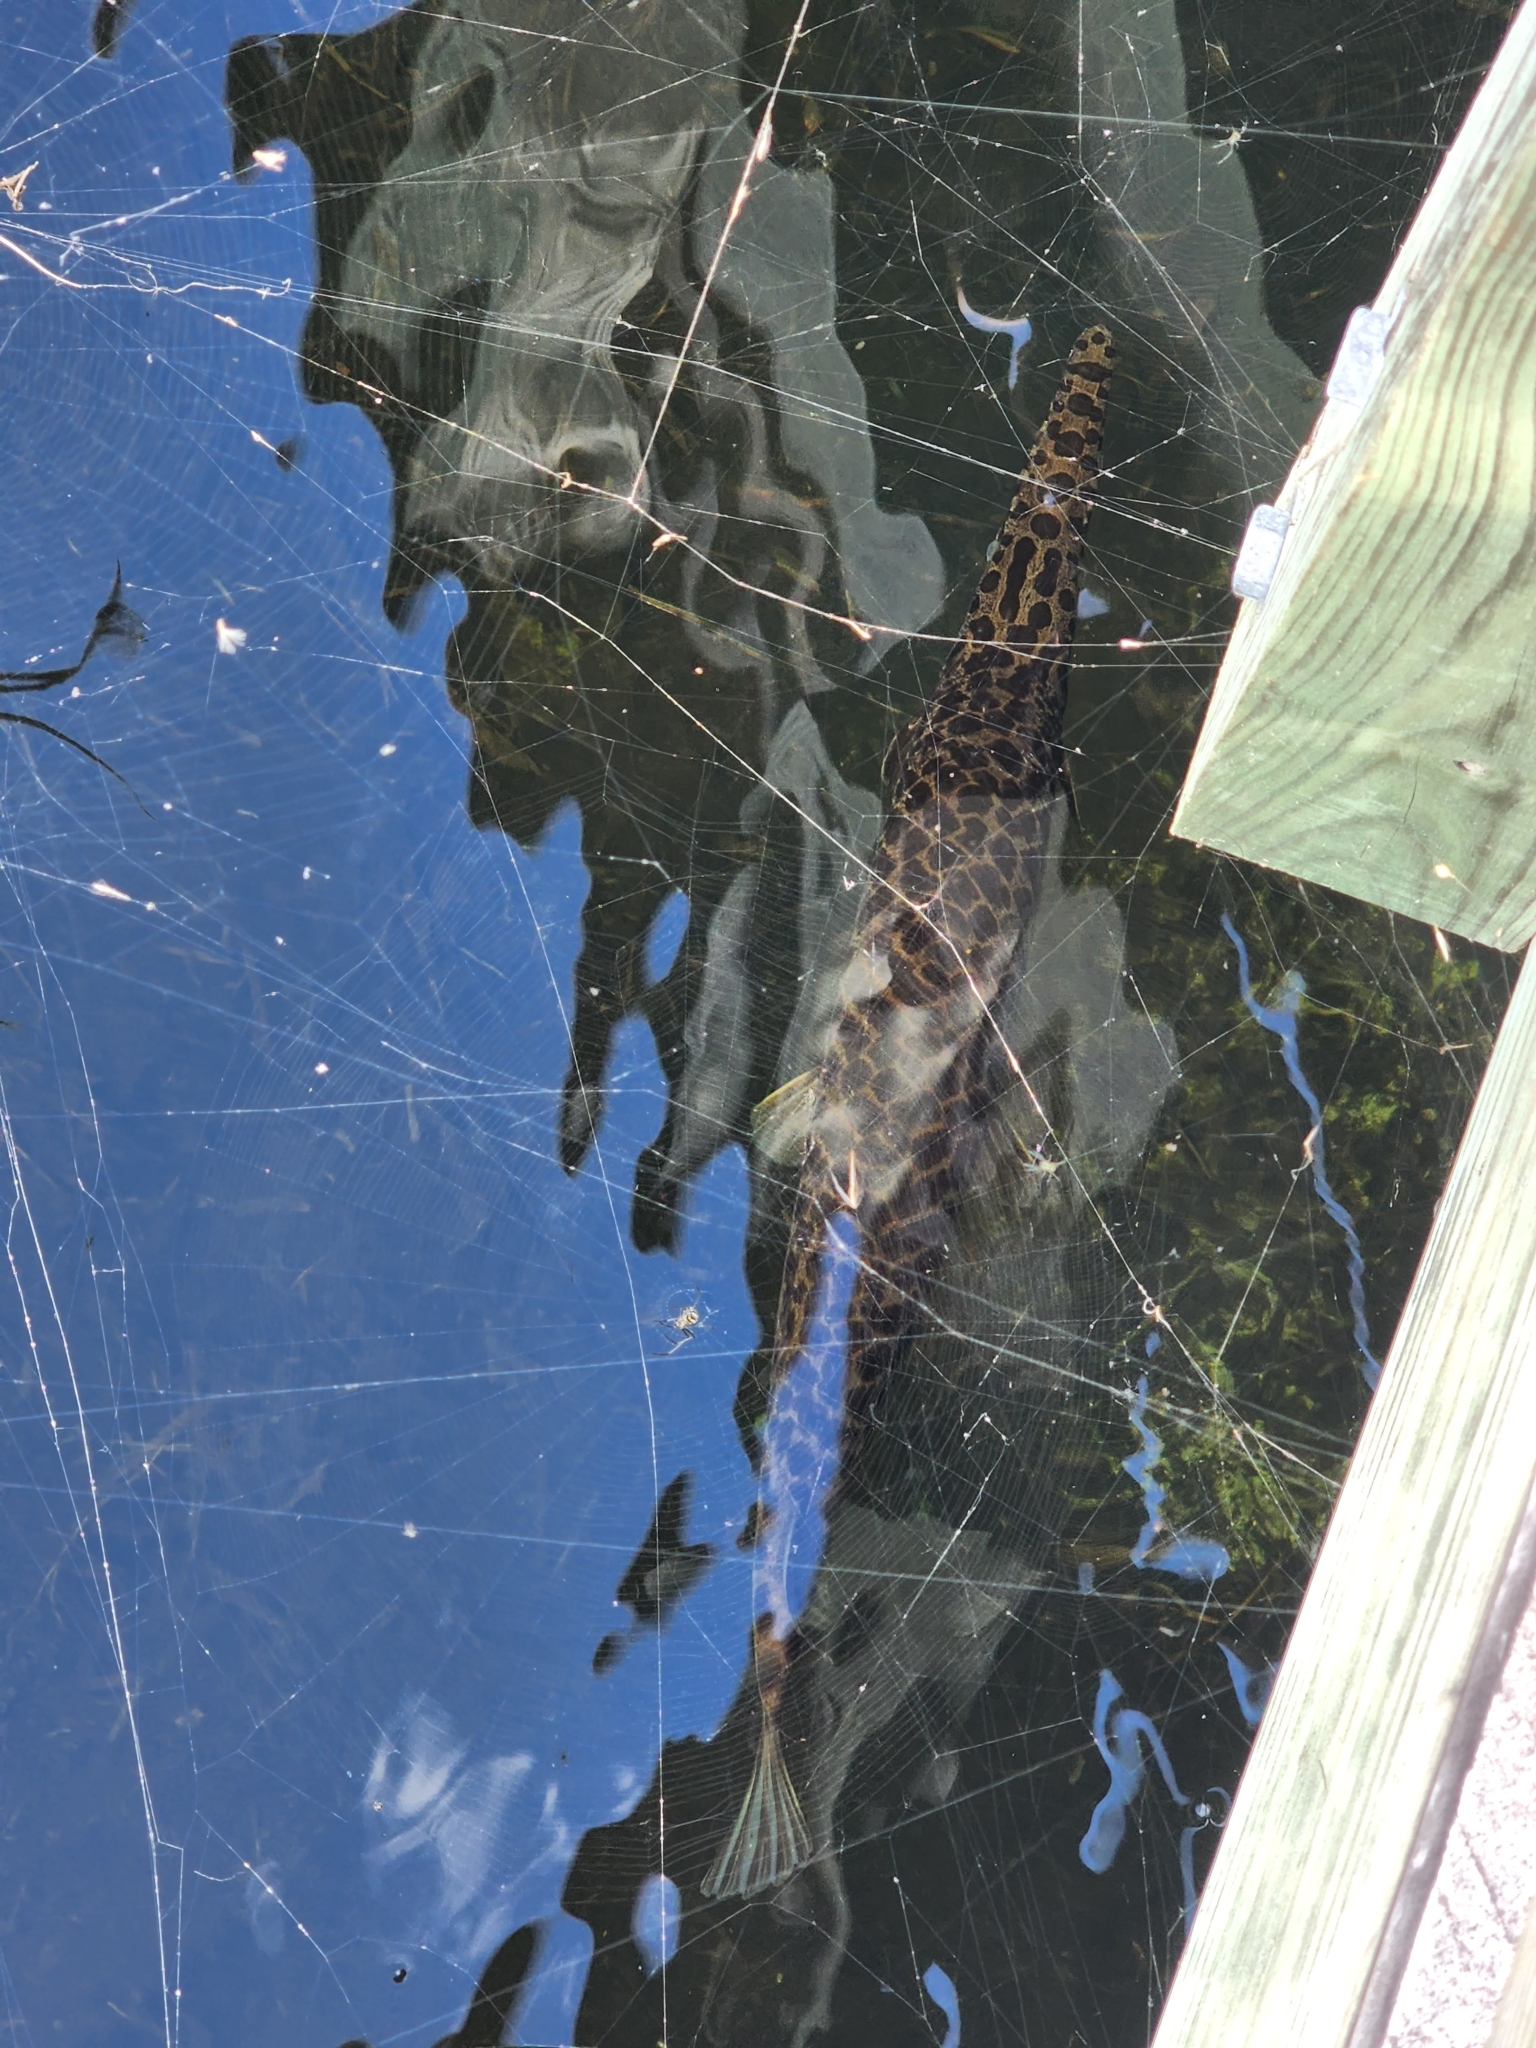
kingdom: Animalia
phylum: Chordata
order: Lepisosteiformes
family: Lepisosteidae
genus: Lepisosteus
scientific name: Lepisosteus platyrhincus
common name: Florida gar
